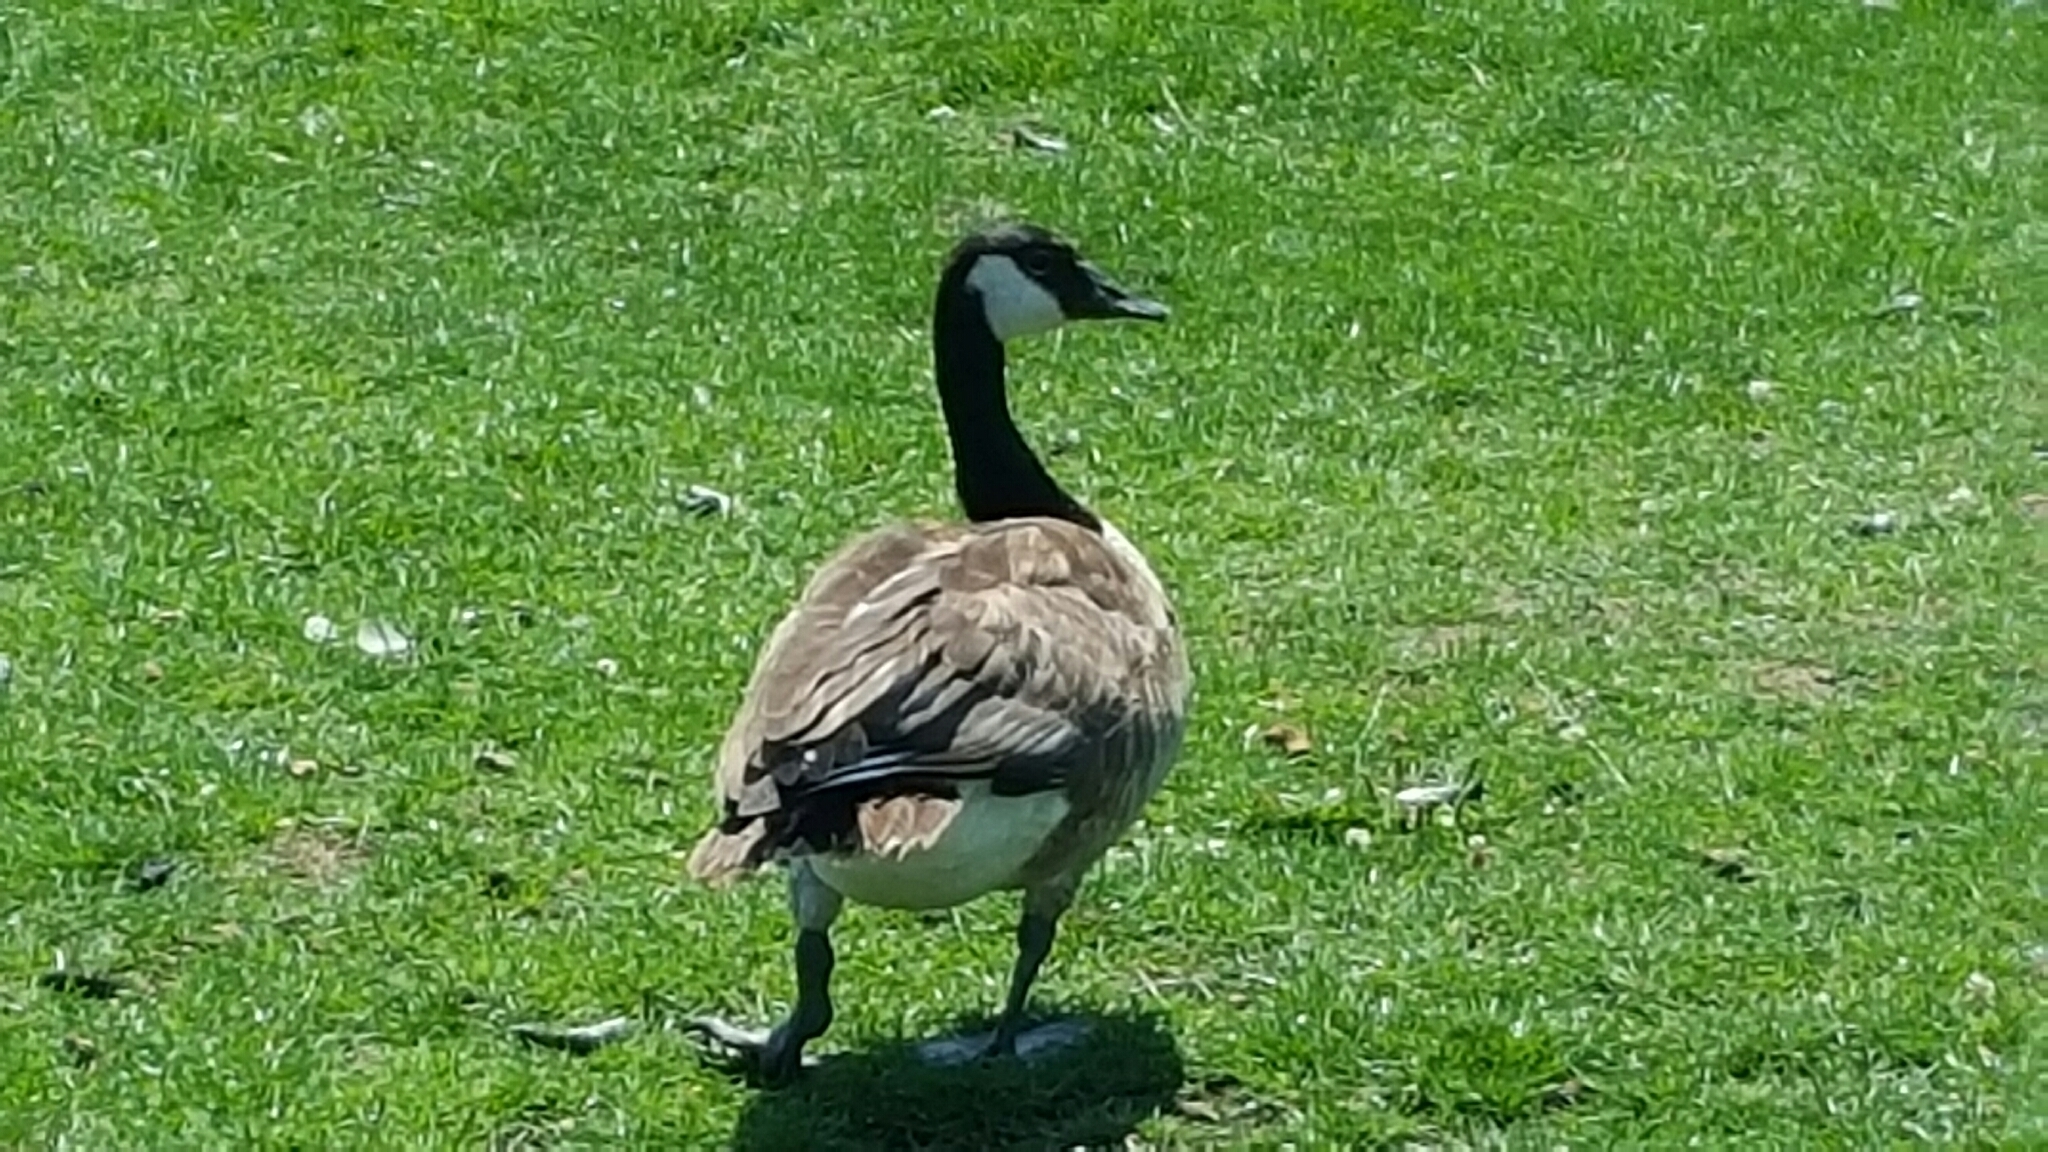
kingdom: Animalia
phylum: Chordata
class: Aves
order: Anseriformes
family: Anatidae
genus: Branta
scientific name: Branta canadensis
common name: Canada goose
